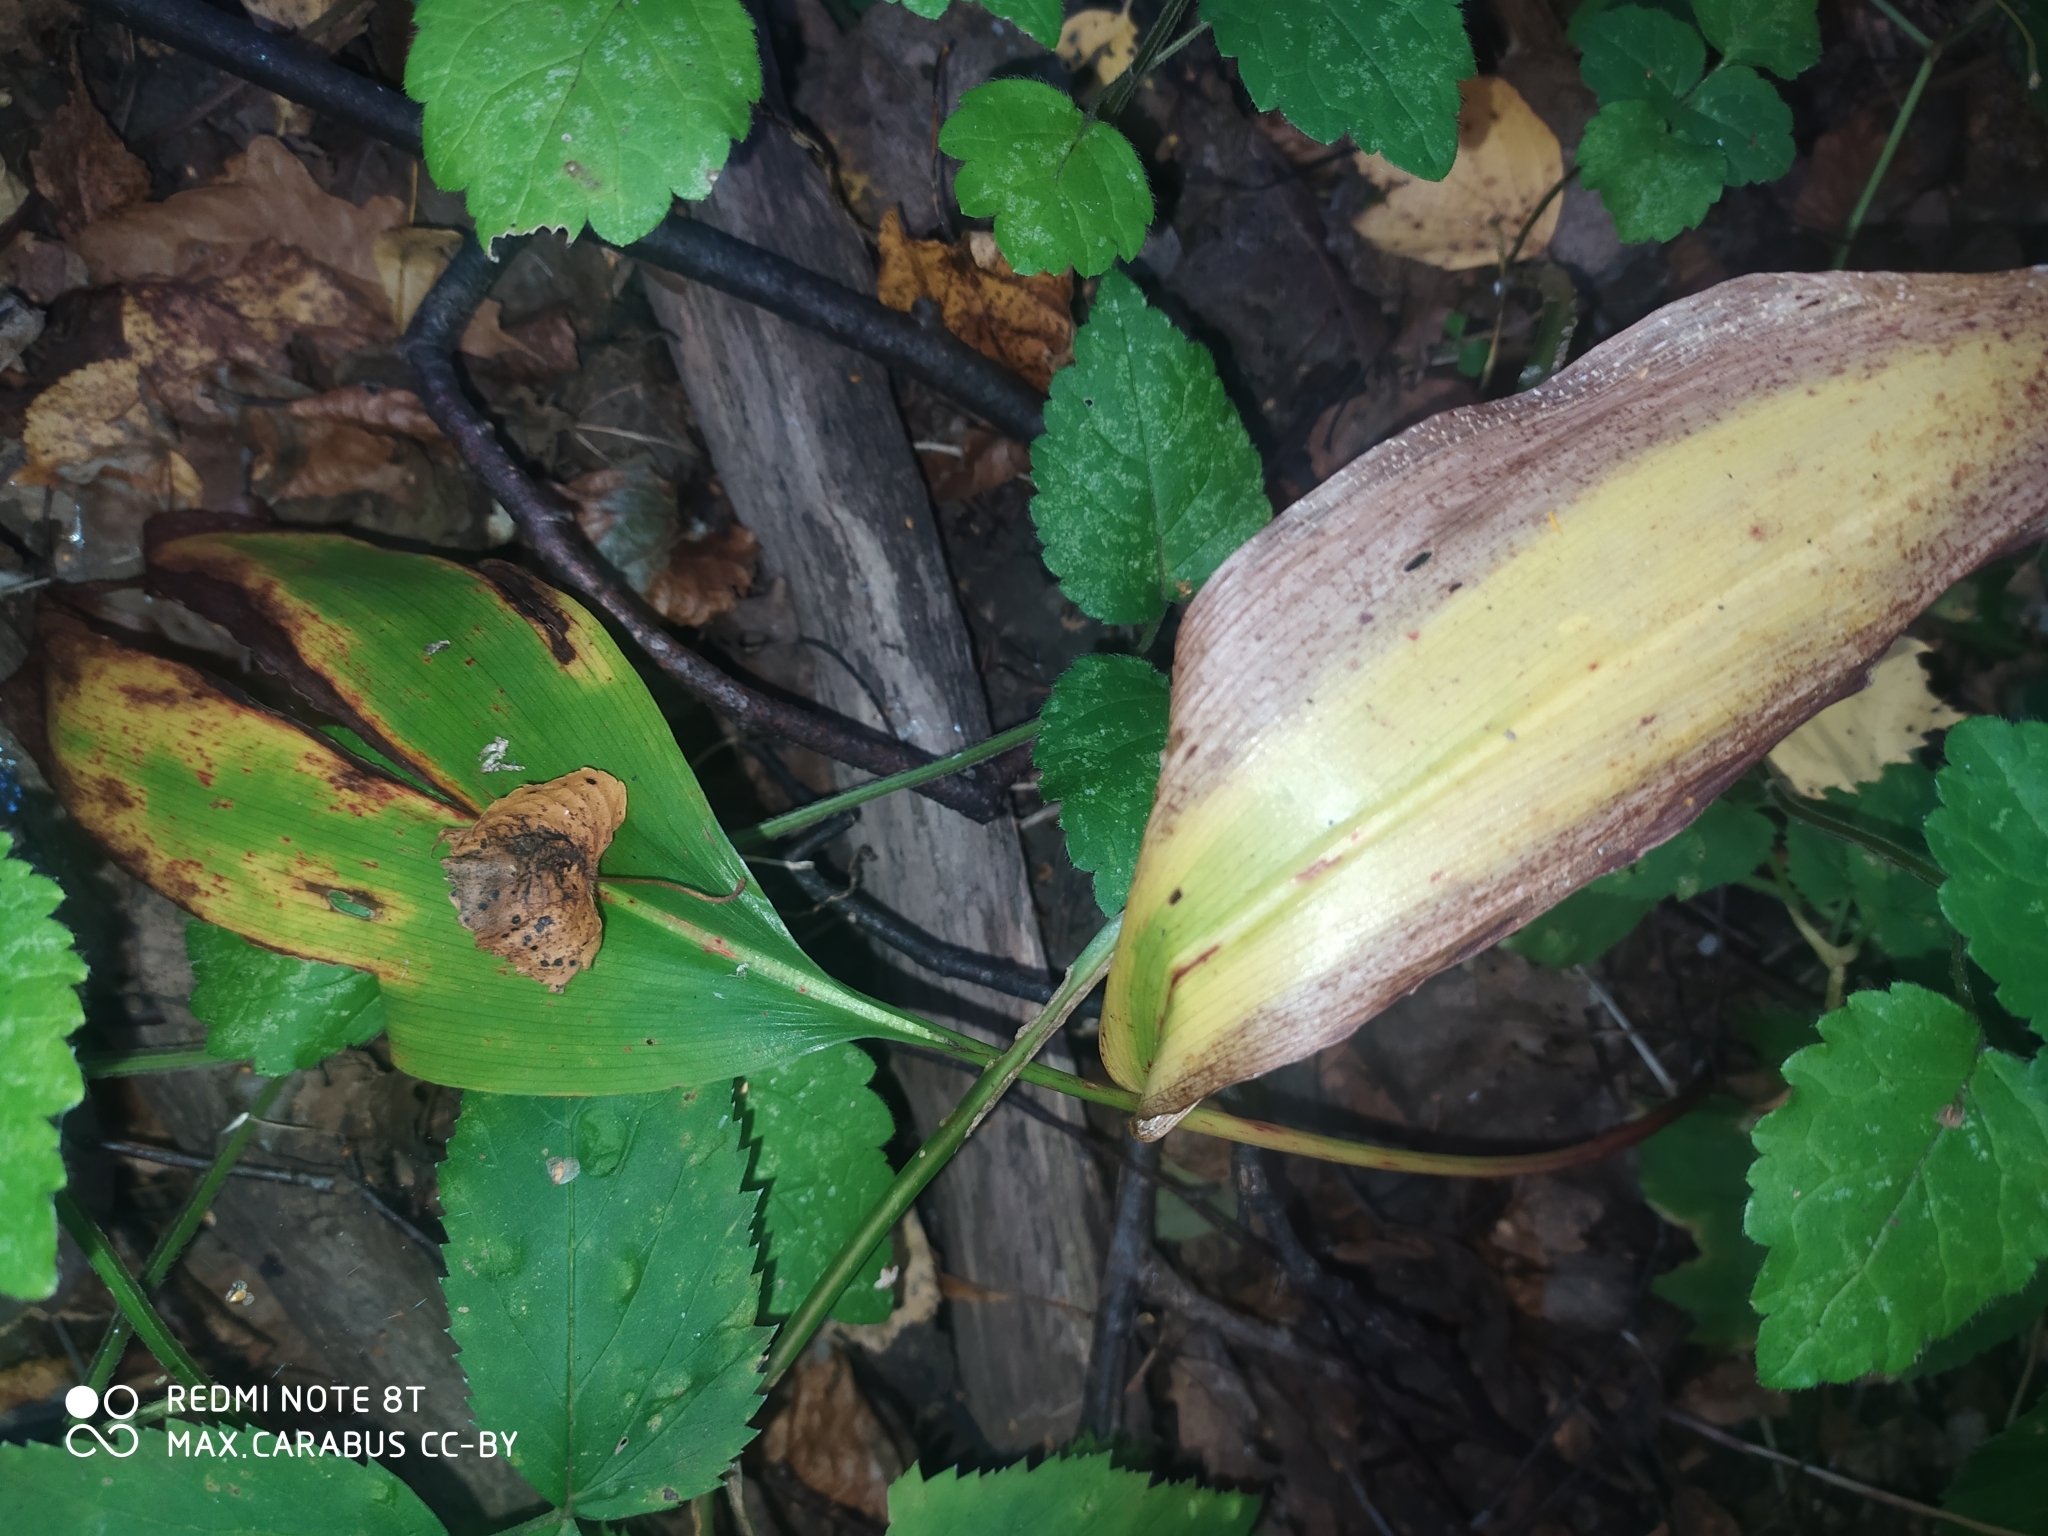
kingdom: Plantae
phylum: Tracheophyta
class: Liliopsida
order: Asparagales
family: Asparagaceae
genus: Convallaria
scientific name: Convallaria majalis
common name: Lily-of-the-valley
